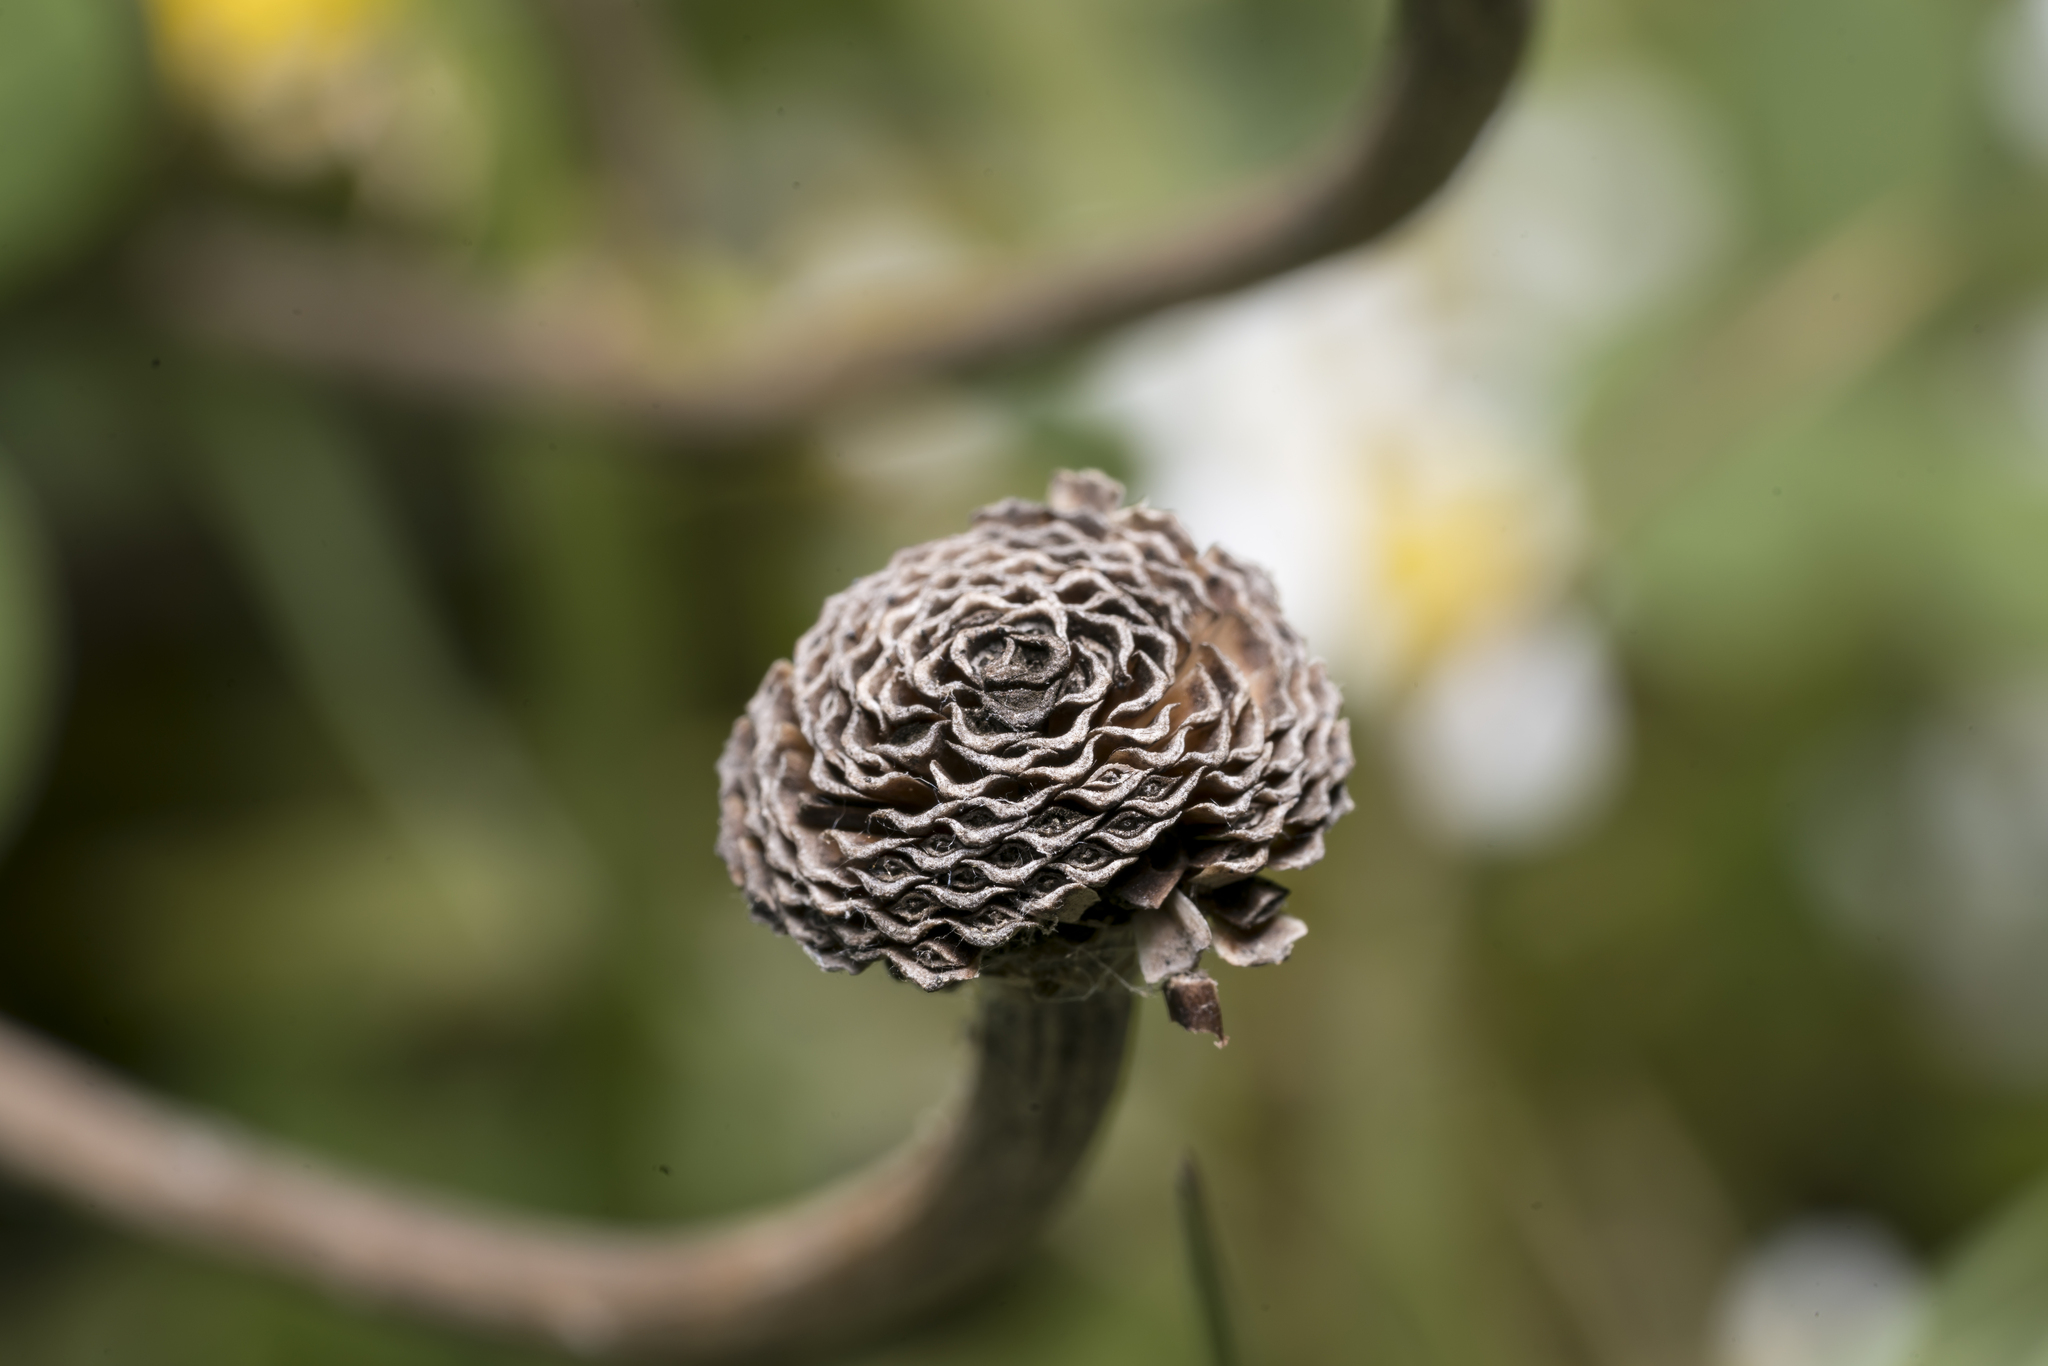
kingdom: Plantae
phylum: Tracheophyta
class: Magnoliopsida
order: Asterales
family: Asteraceae
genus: Cota
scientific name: Cota amblyolepis
